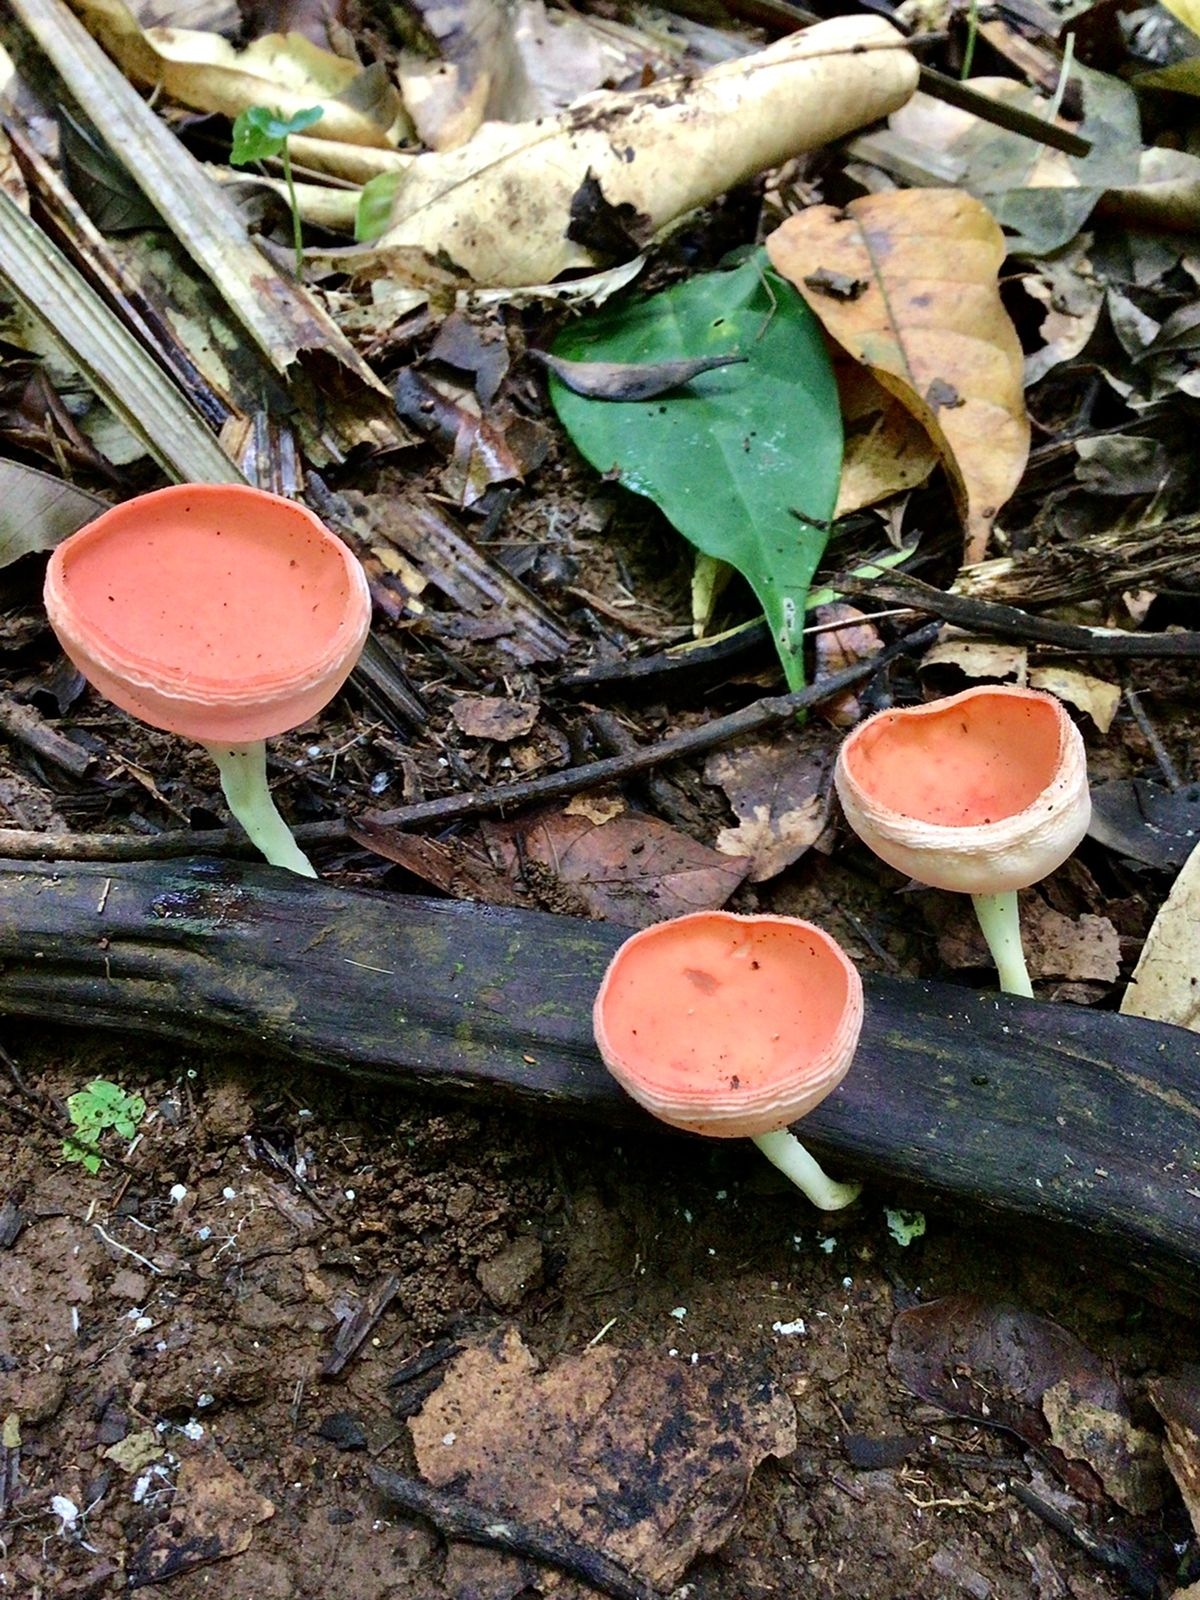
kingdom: Fungi
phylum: Ascomycota
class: Pezizomycetes
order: Pezizales
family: Sarcoscyphaceae
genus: Cookeina
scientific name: Cookeina speciosa
